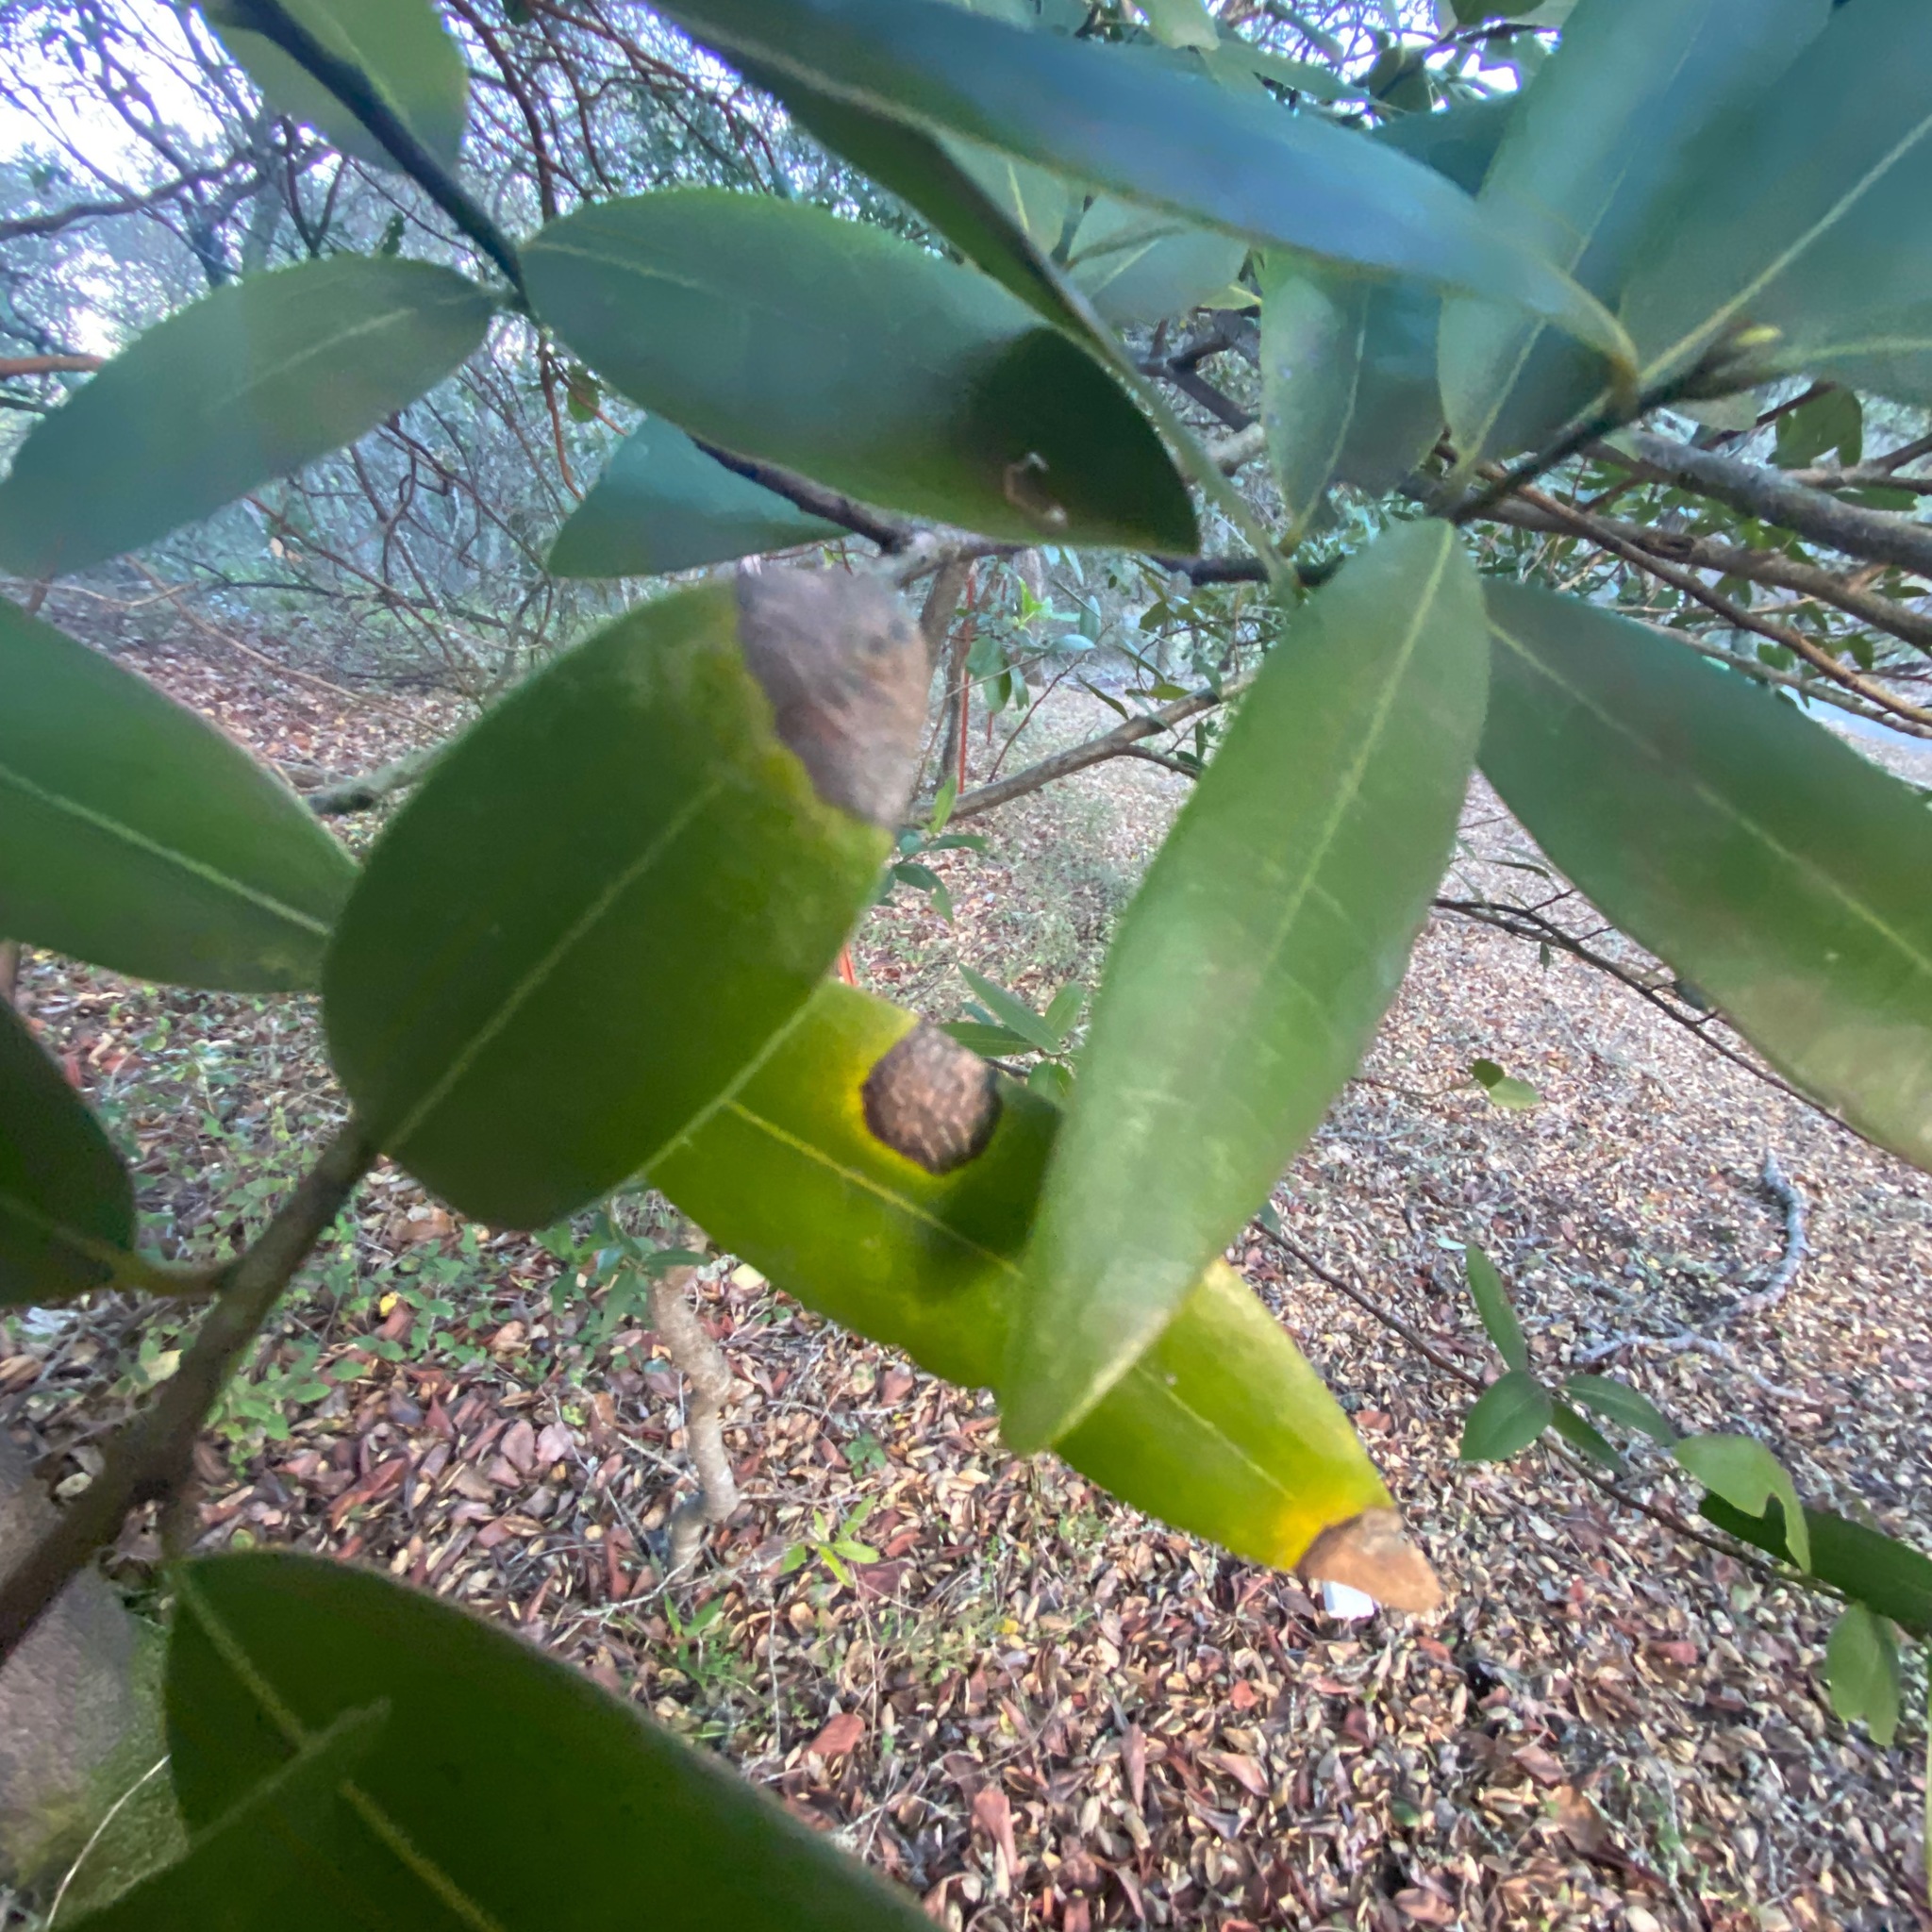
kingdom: Chromista
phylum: Oomycota
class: Peronosporea
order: Peronosporales
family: Peronosporaceae
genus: Phytophthora
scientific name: Phytophthora ramorum
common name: Sudden oak death
